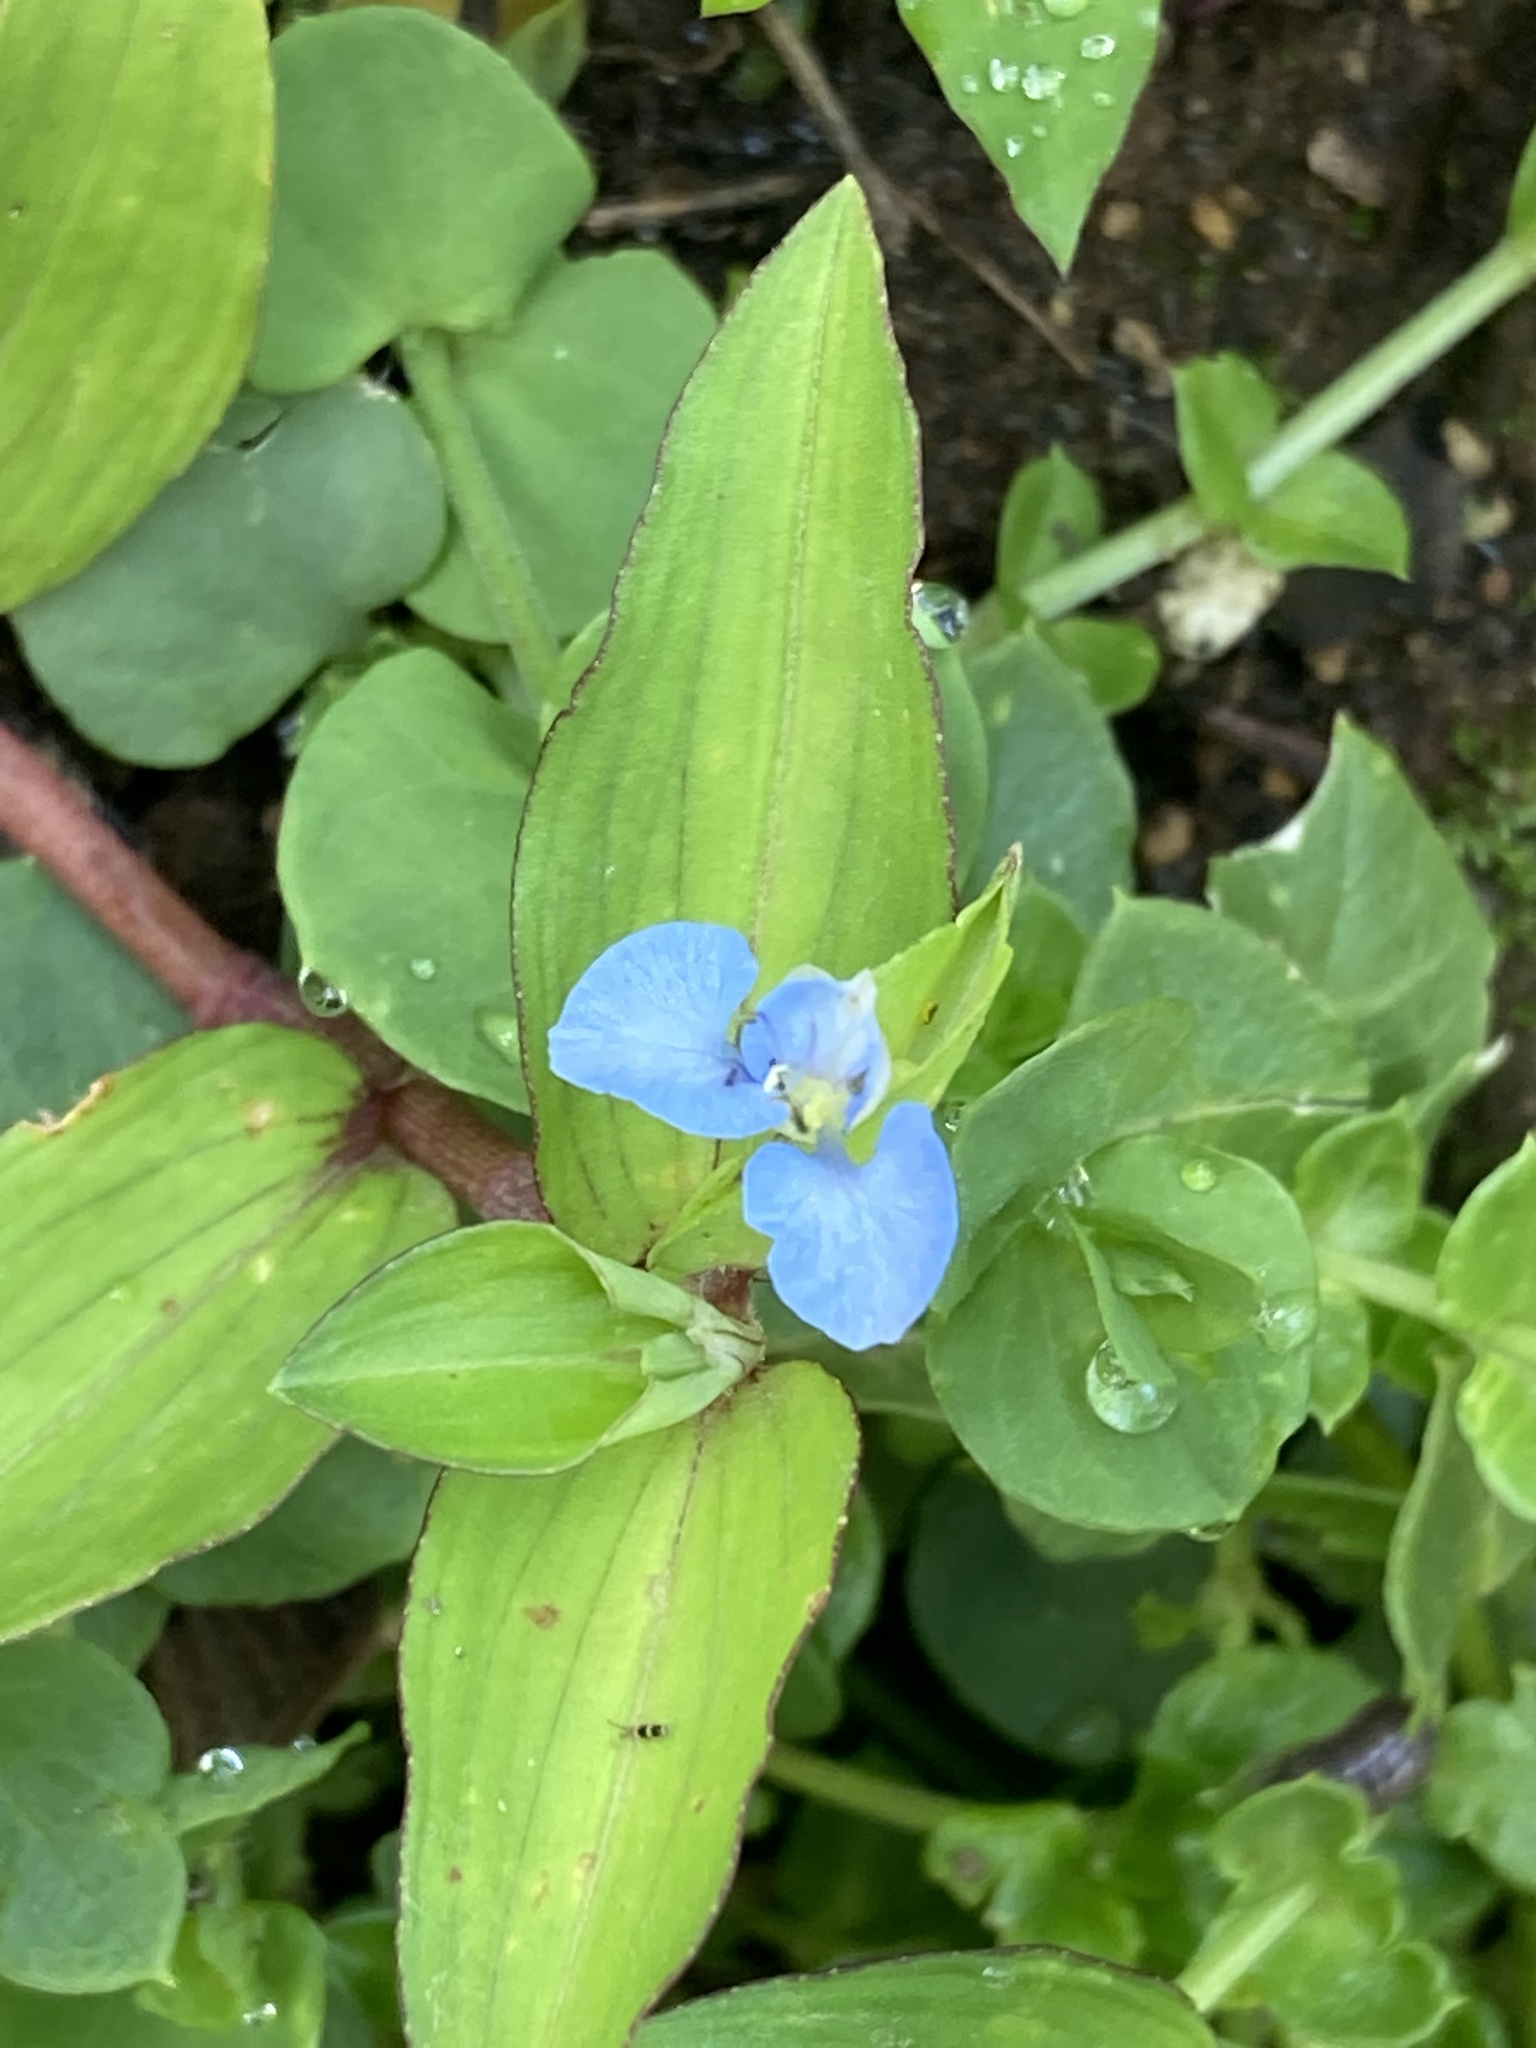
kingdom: Plantae
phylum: Tracheophyta
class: Liliopsida
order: Commelinales
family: Commelinaceae
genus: Commelina
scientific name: Commelina diffusa
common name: Climbing dayflower
